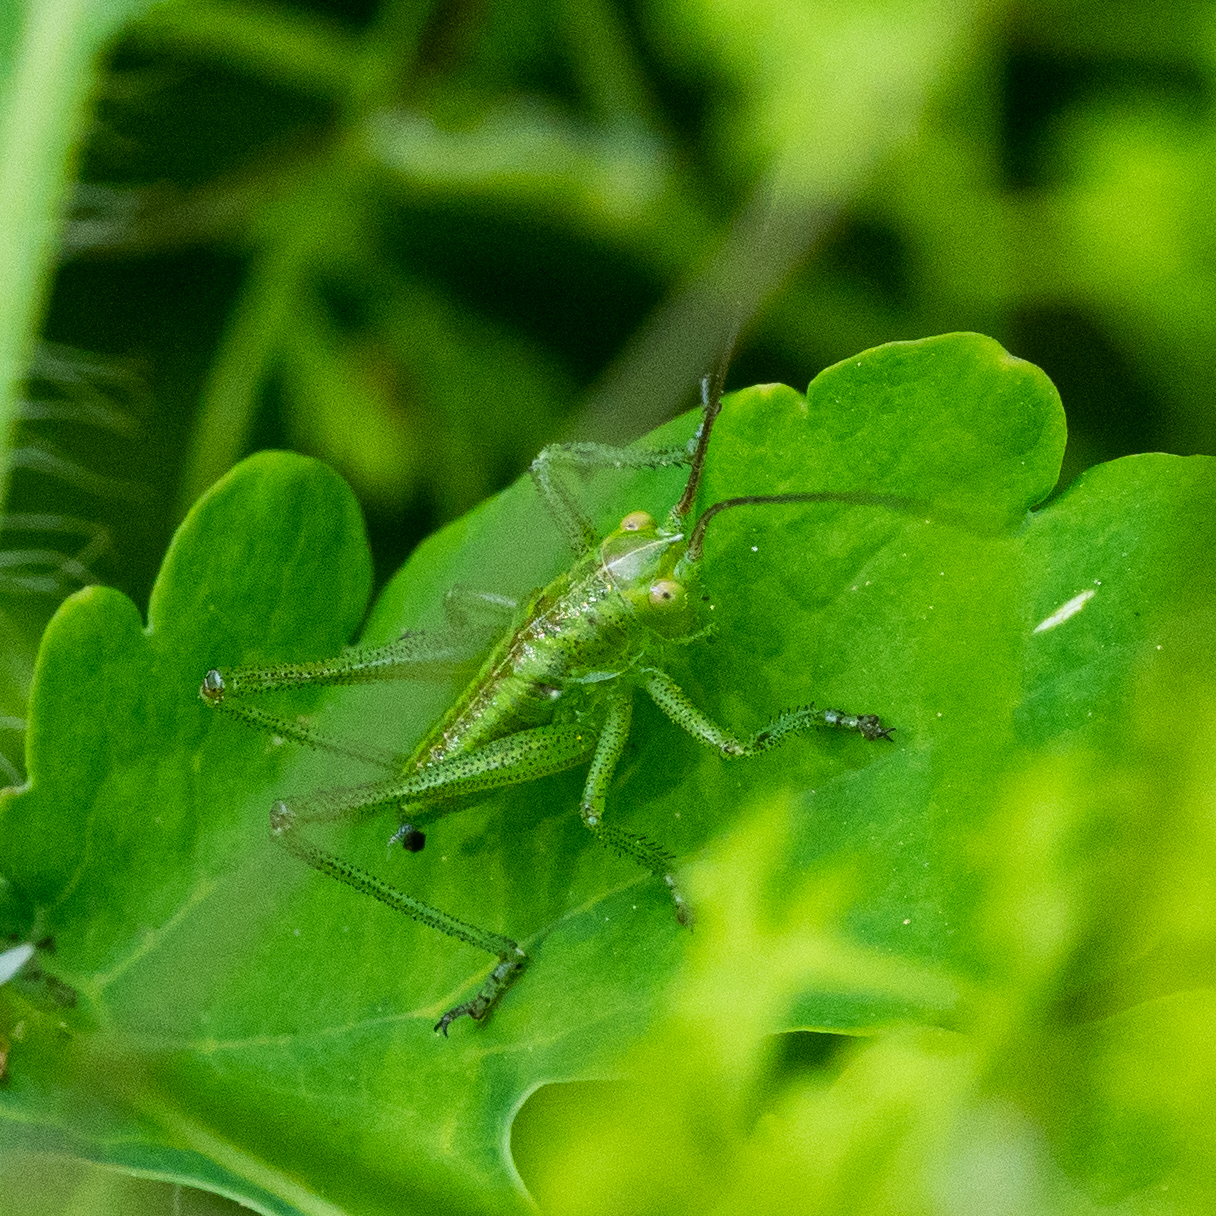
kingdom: Animalia
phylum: Arthropoda
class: Insecta
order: Orthoptera
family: Tettigoniidae
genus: Tettigonia
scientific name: Tettigonia viridissima
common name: Great green bush-cricket
